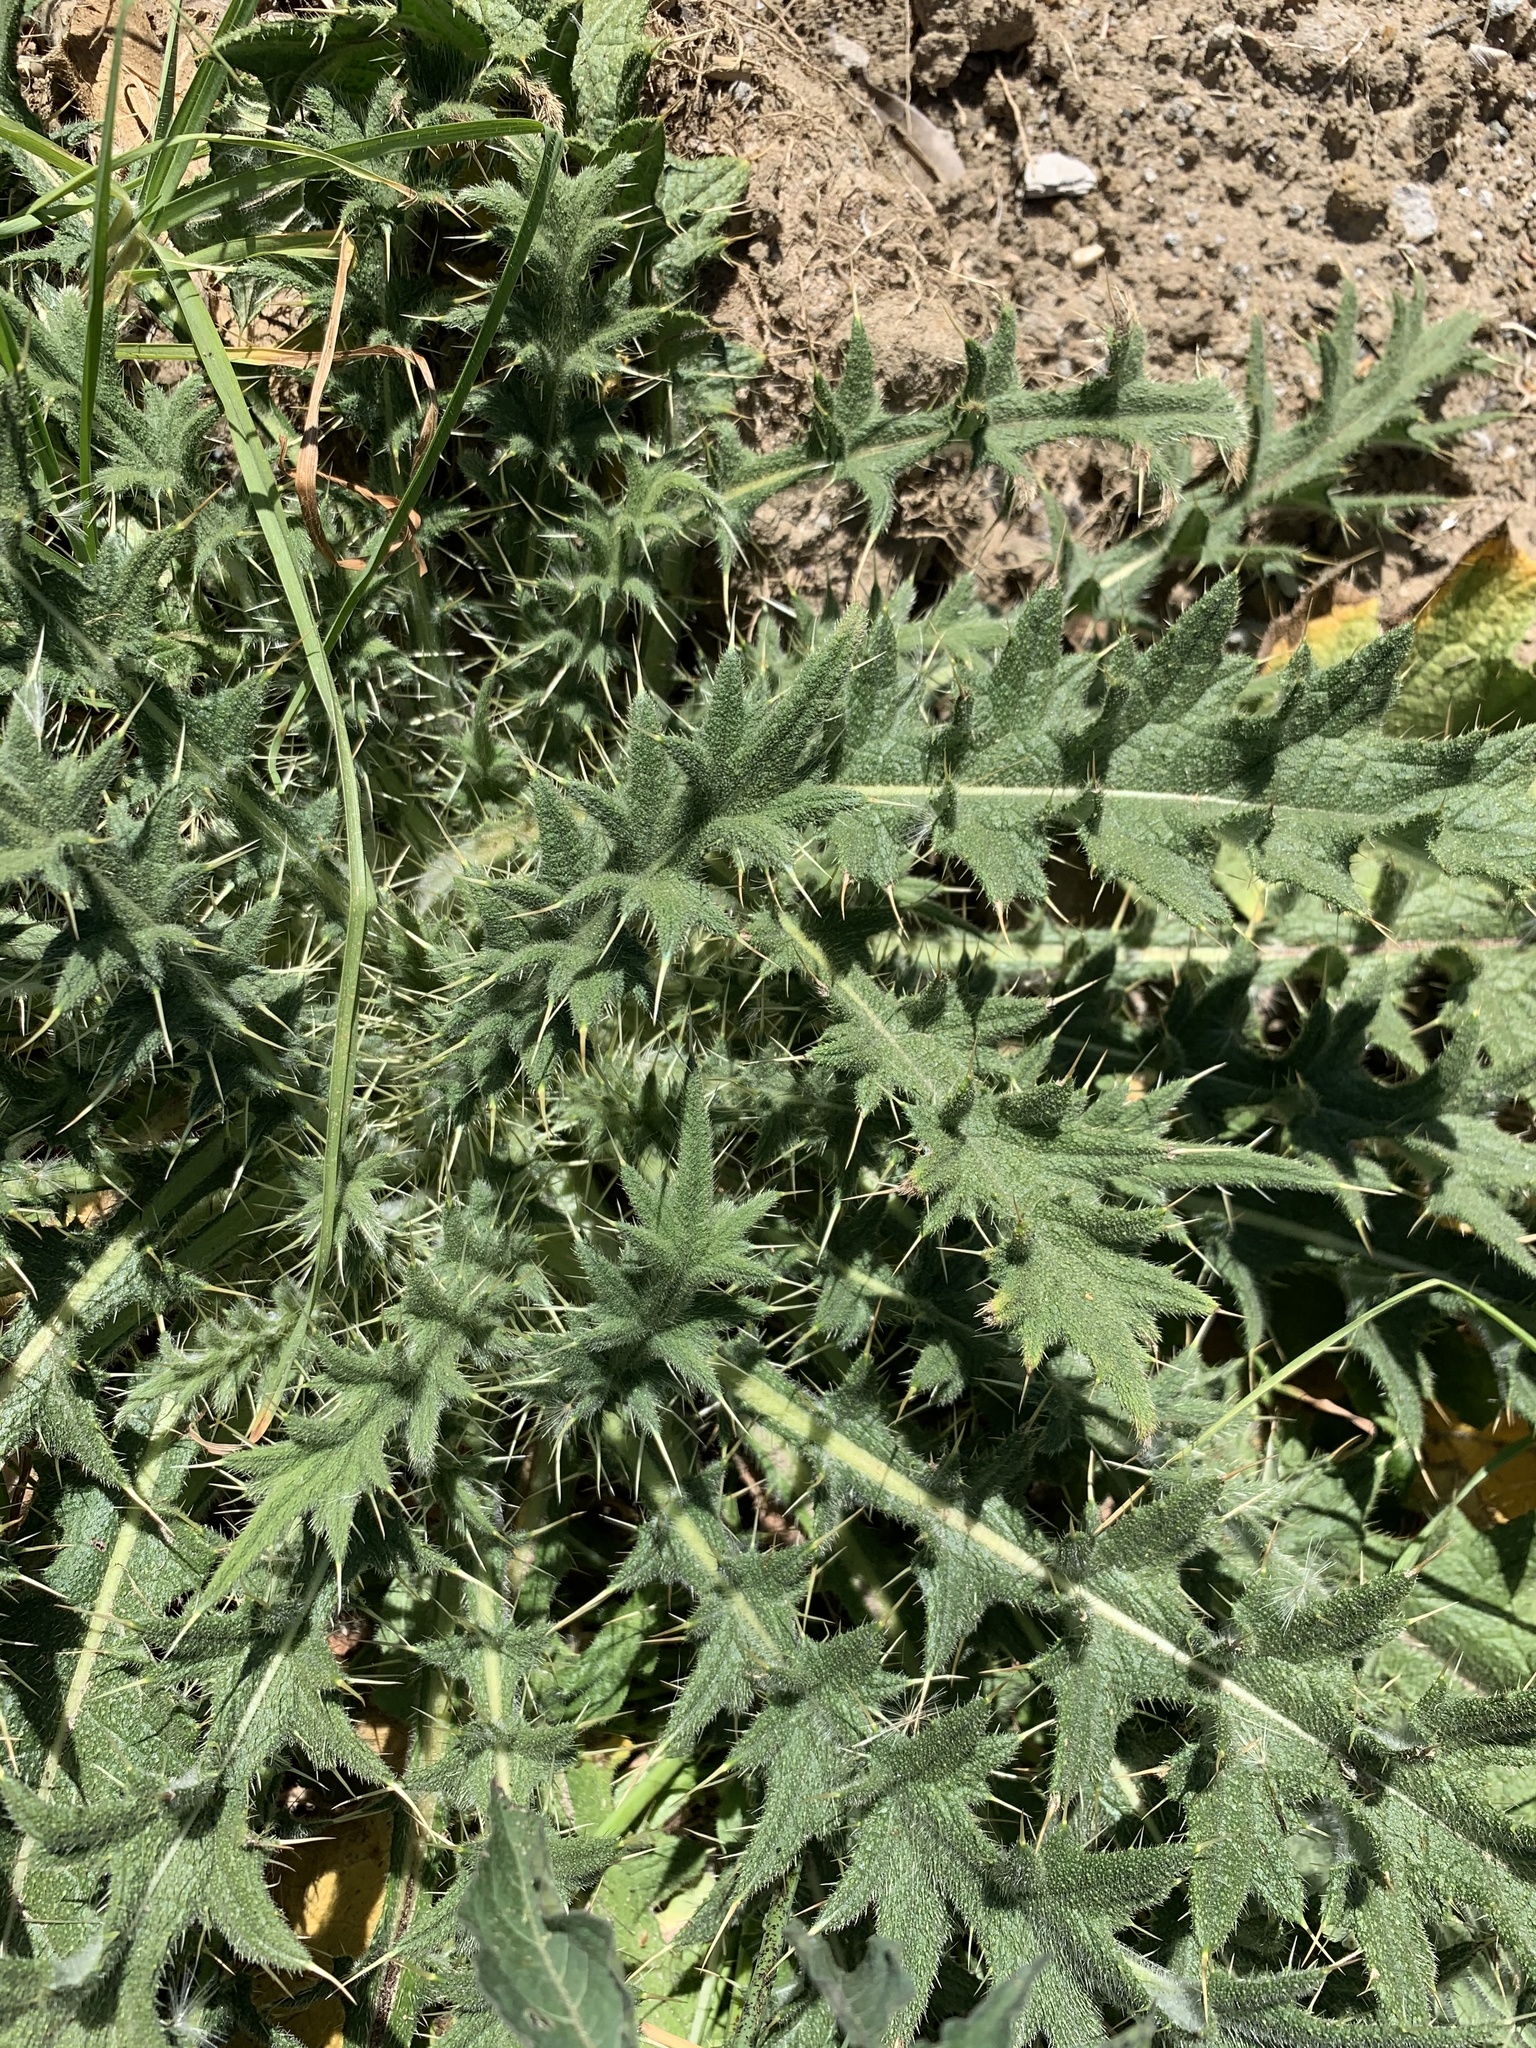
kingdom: Plantae
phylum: Tracheophyta
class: Magnoliopsida
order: Asterales
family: Asteraceae
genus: Cirsium
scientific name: Cirsium vulgare
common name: Bull thistle
